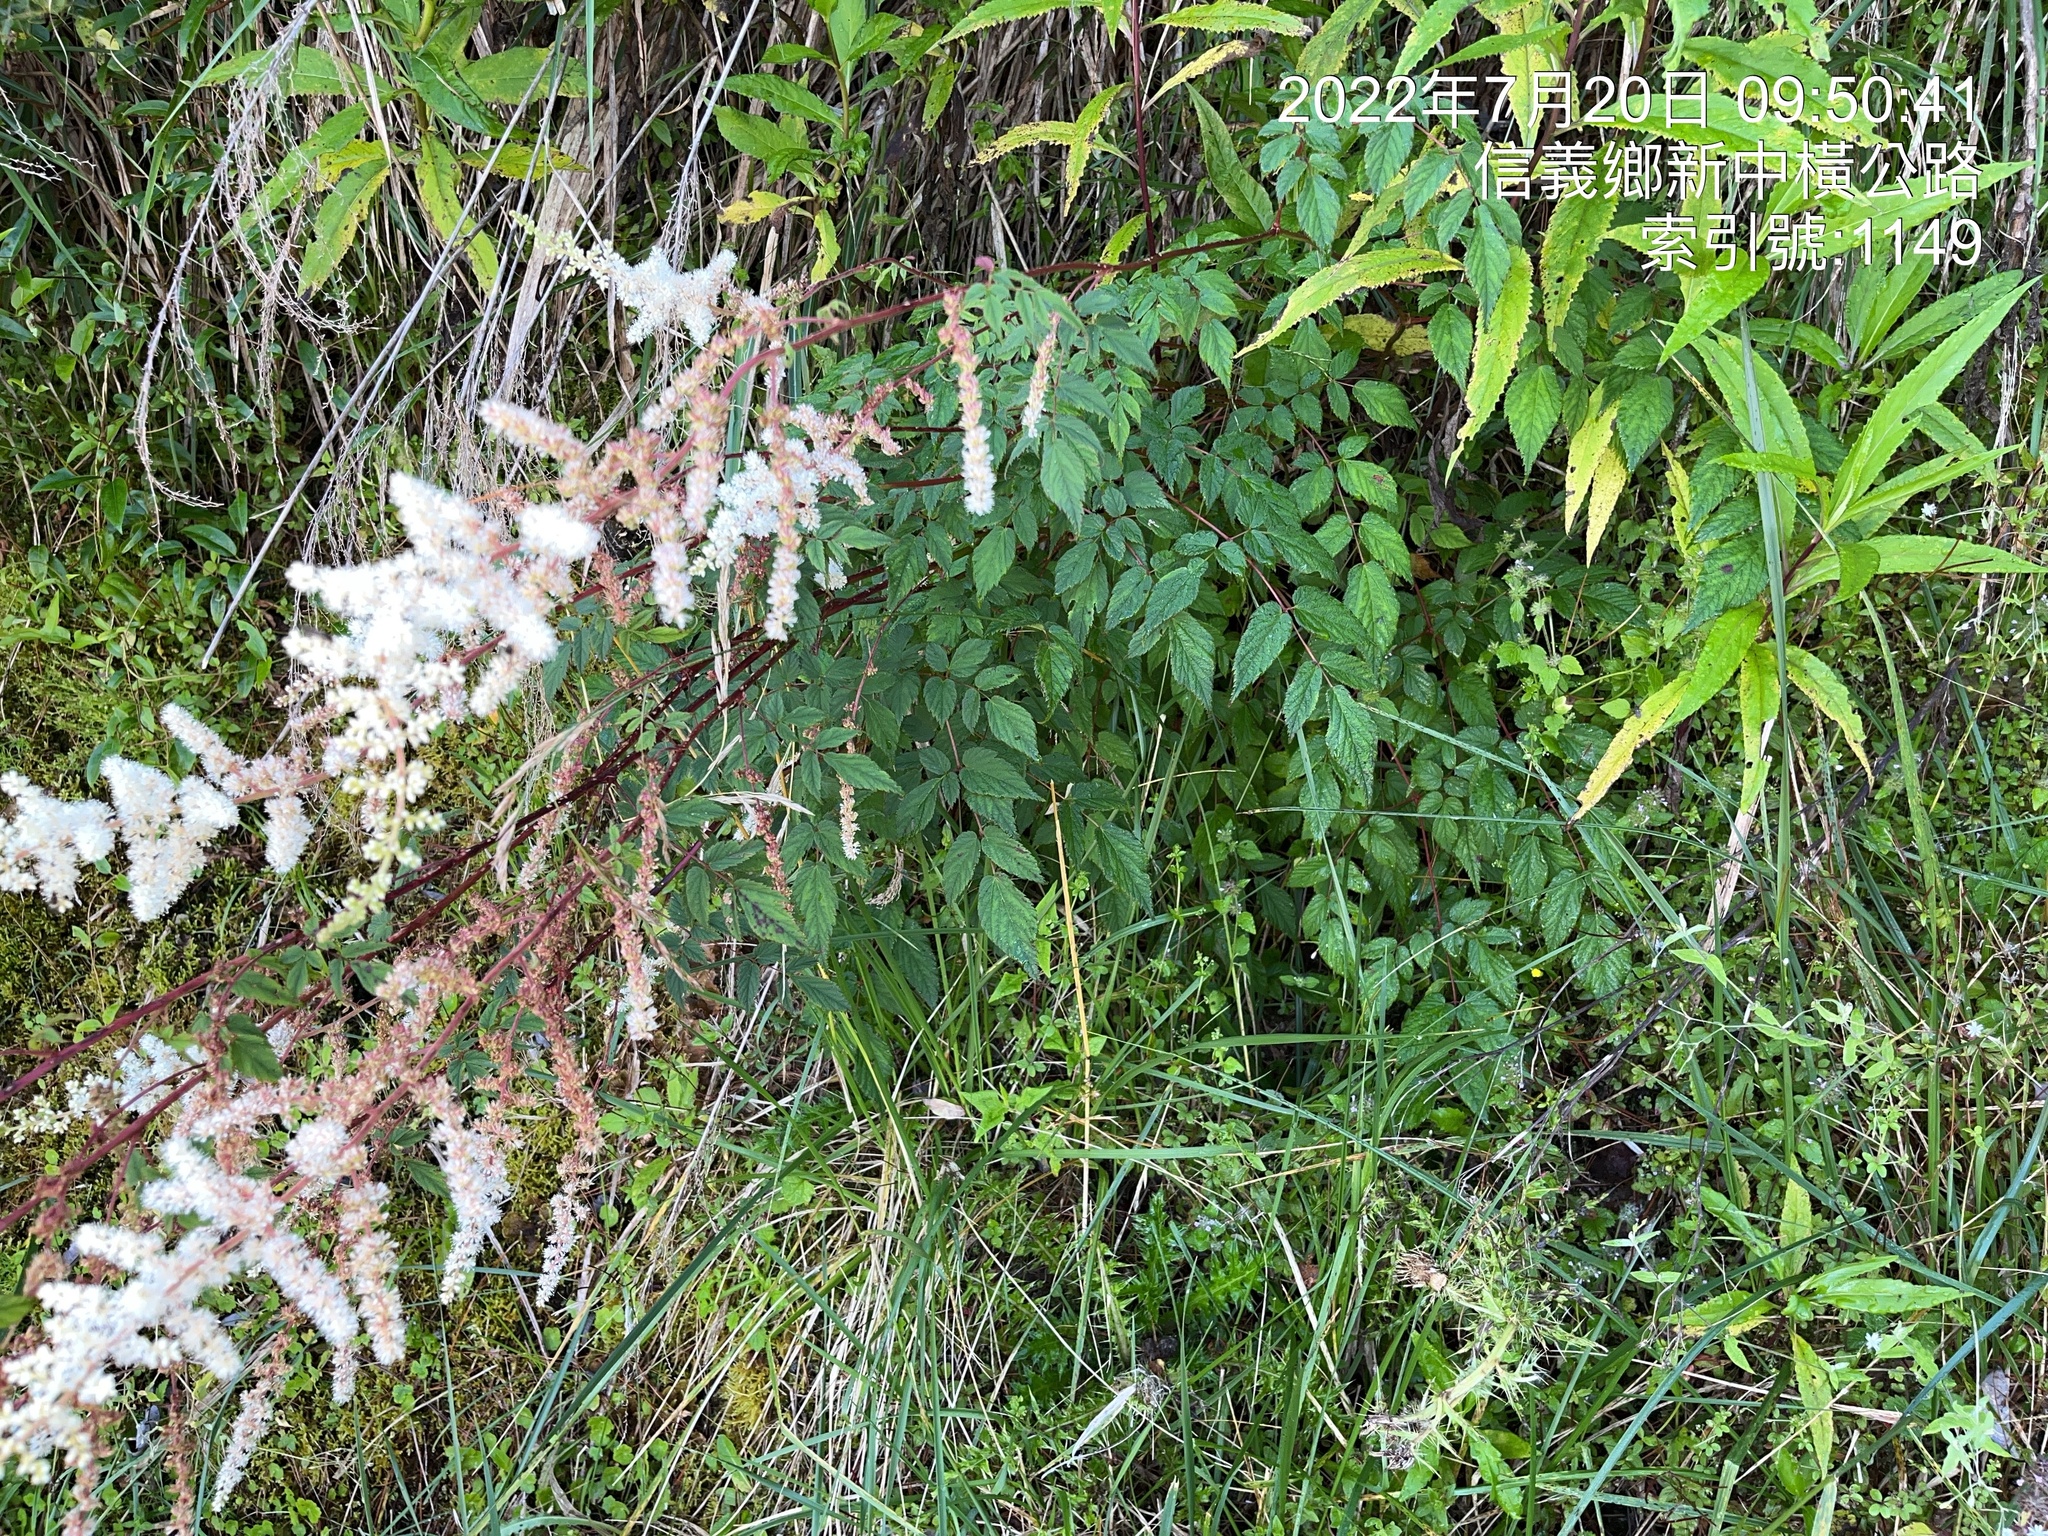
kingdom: Plantae
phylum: Tracheophyta
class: Magnoliopsida
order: Saxifragales
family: Saxifragaceae
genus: Astilbe
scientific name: Astilbe longicarpa
